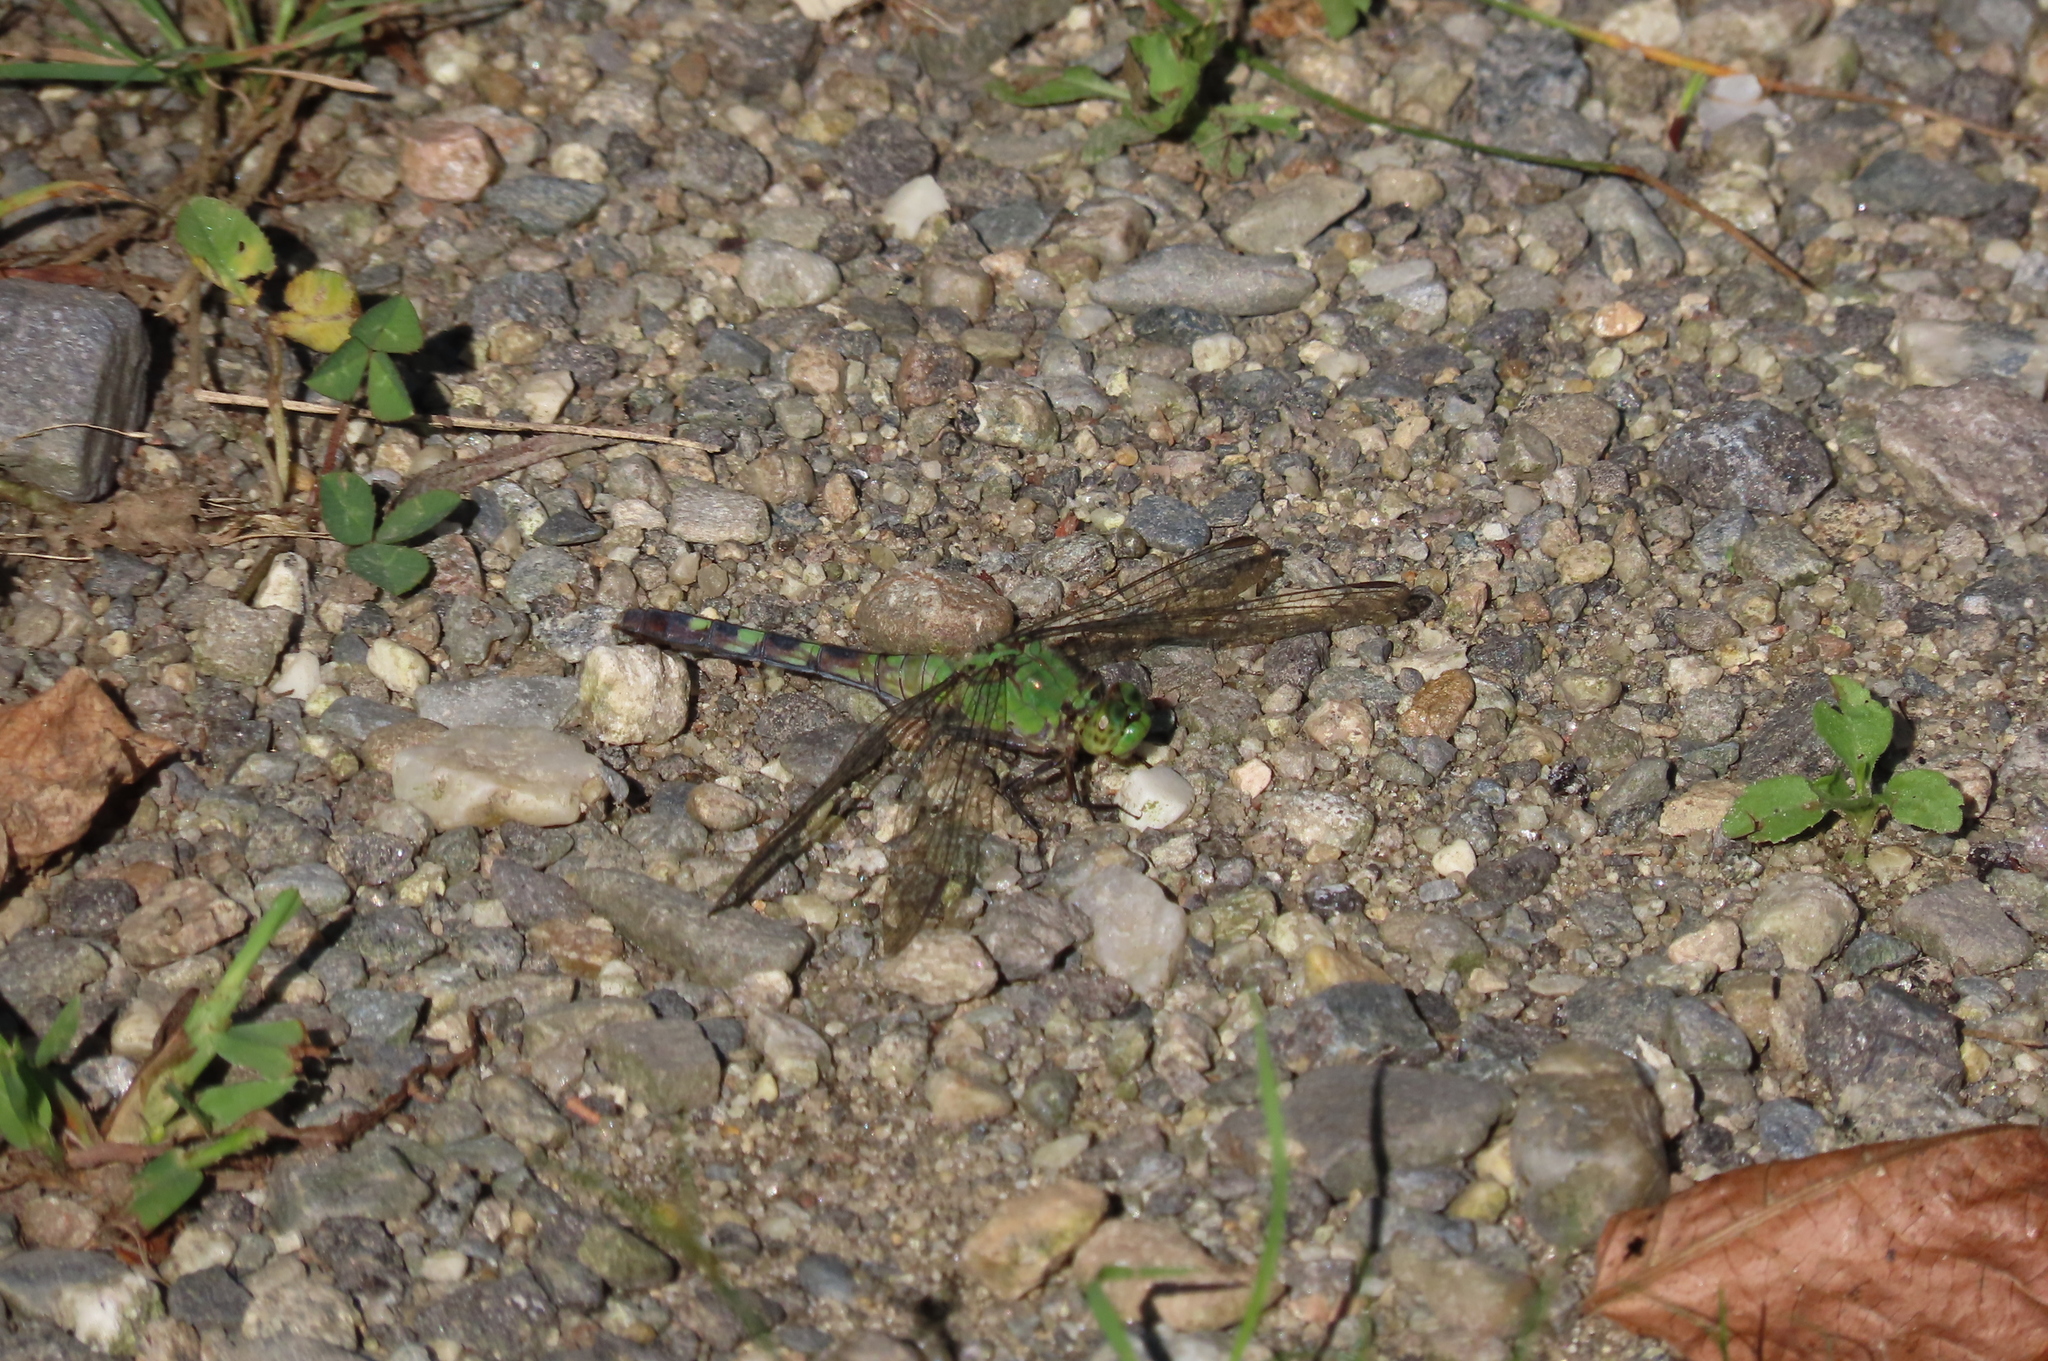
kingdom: Animalia
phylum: Arthropoda
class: Insecta
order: Odonata
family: Libellulidae
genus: Erythemis
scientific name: Erythemis simplicicollis
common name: Eastern pondhawk
